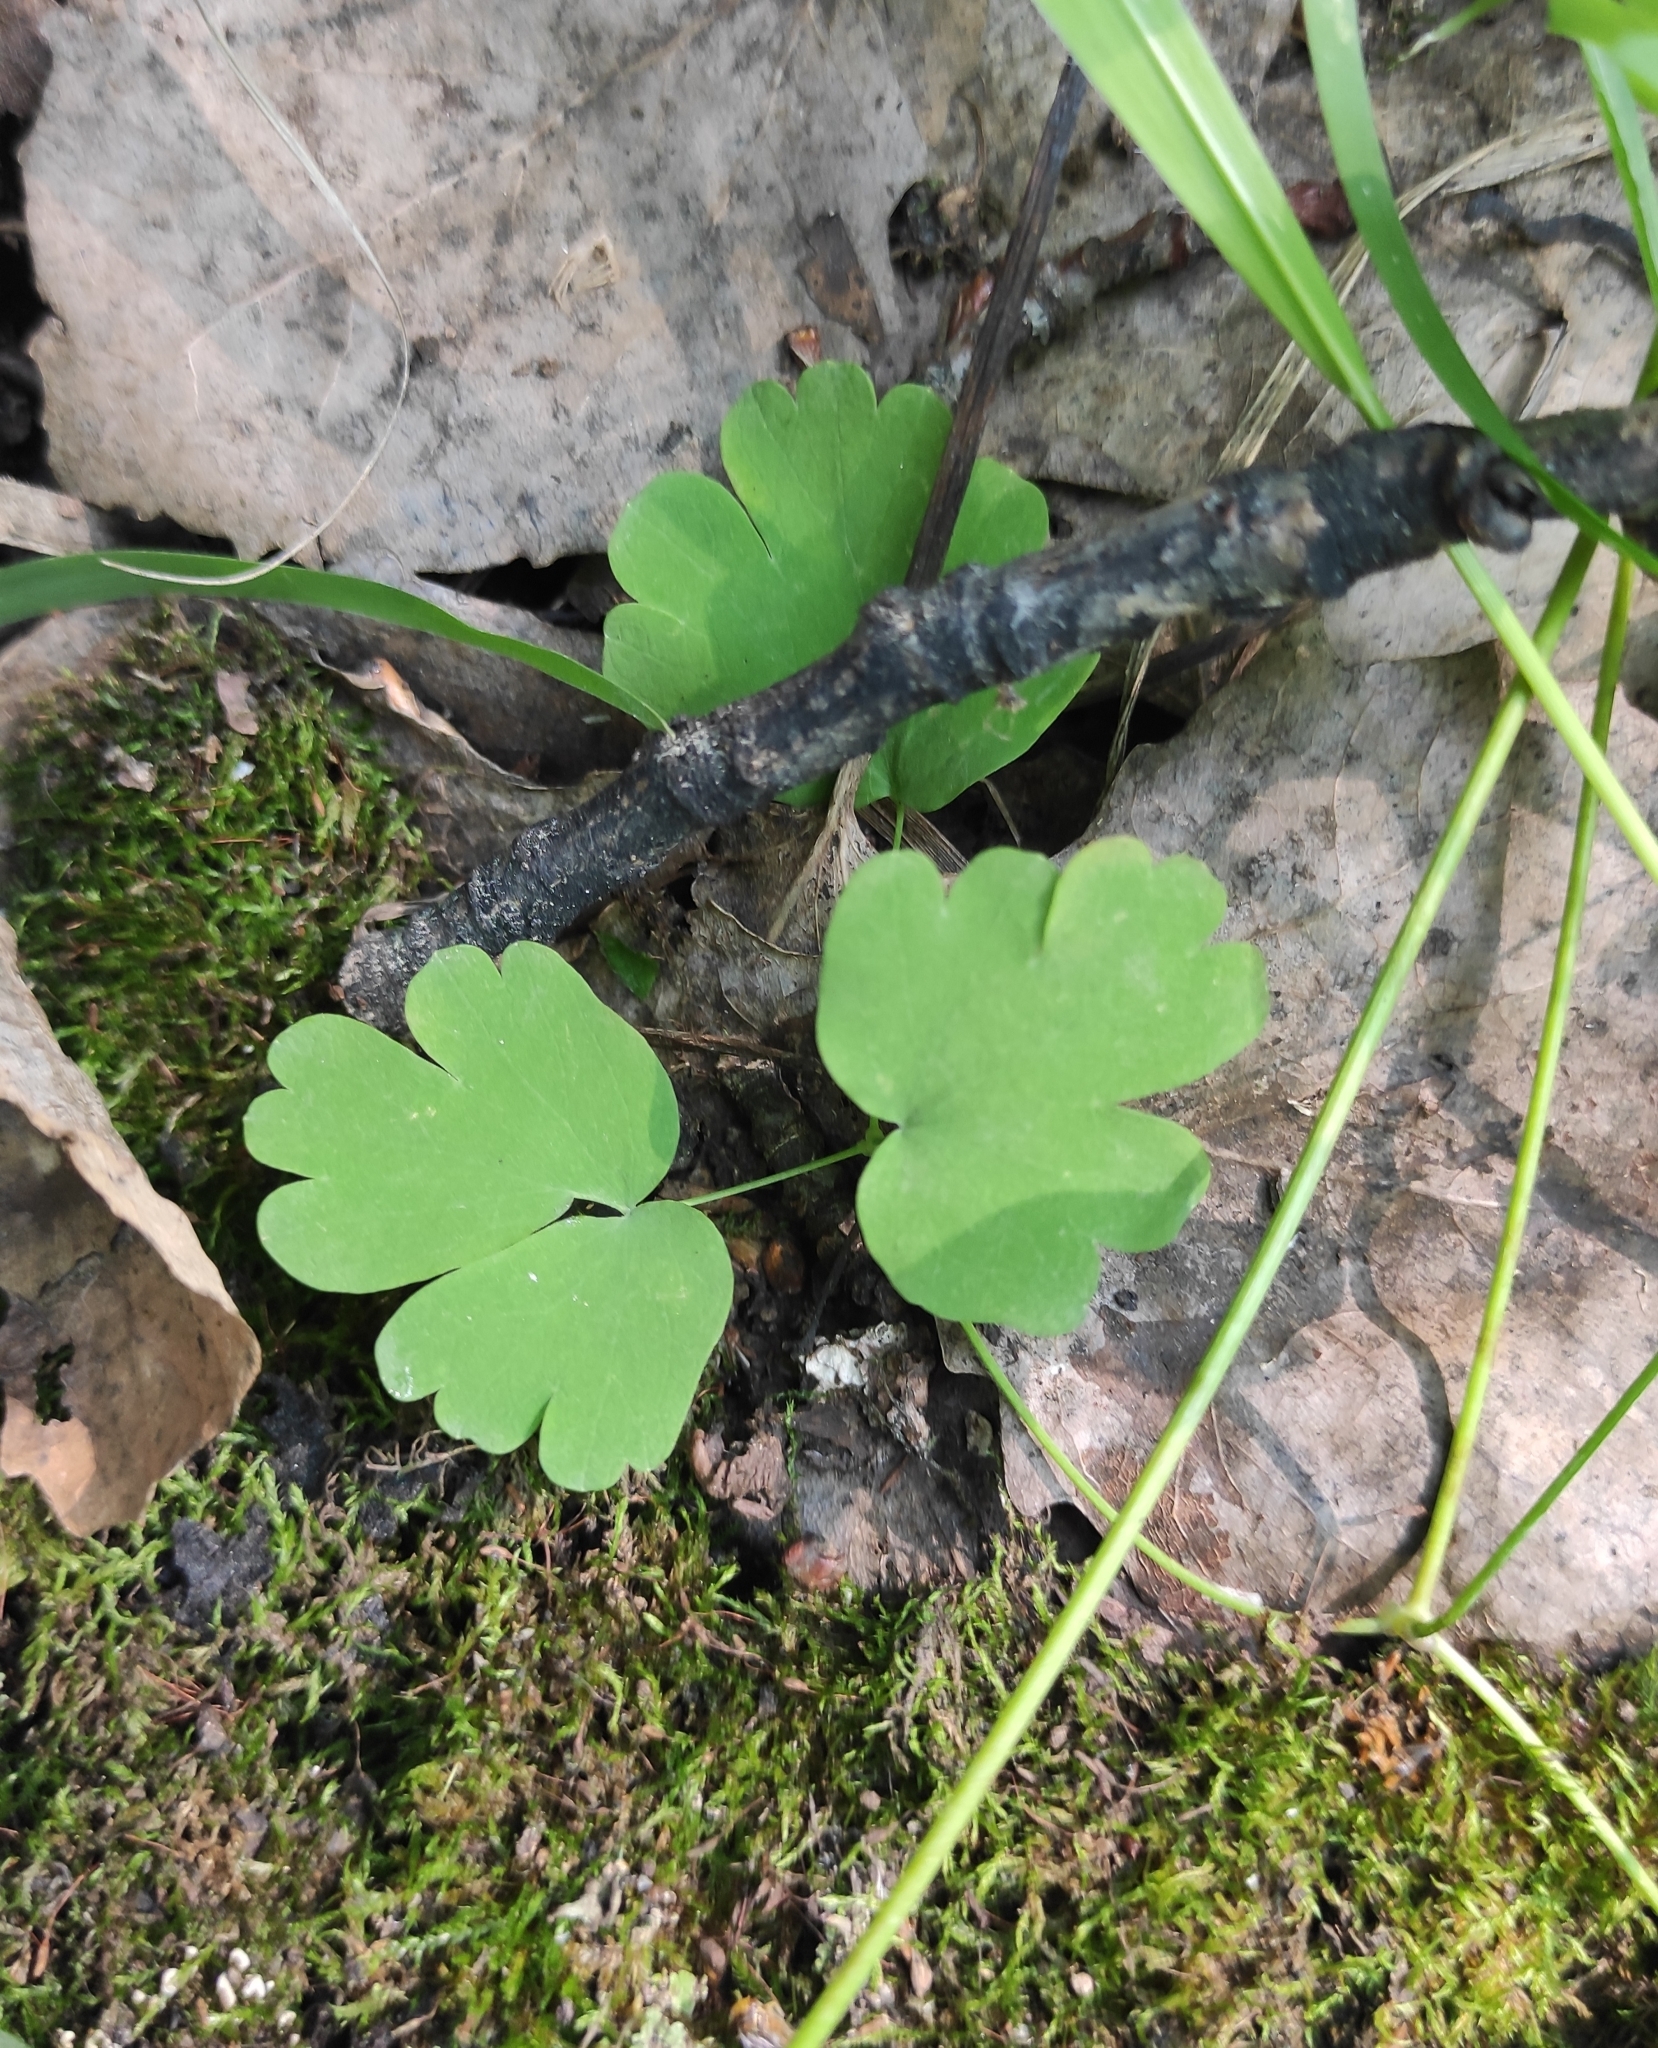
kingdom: Plantae
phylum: Tracheophyta
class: Magnoliopsida
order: Dipsacales
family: Viburnaceae
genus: Adoxa
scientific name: Adoxa moschatellina
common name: Moschatel
